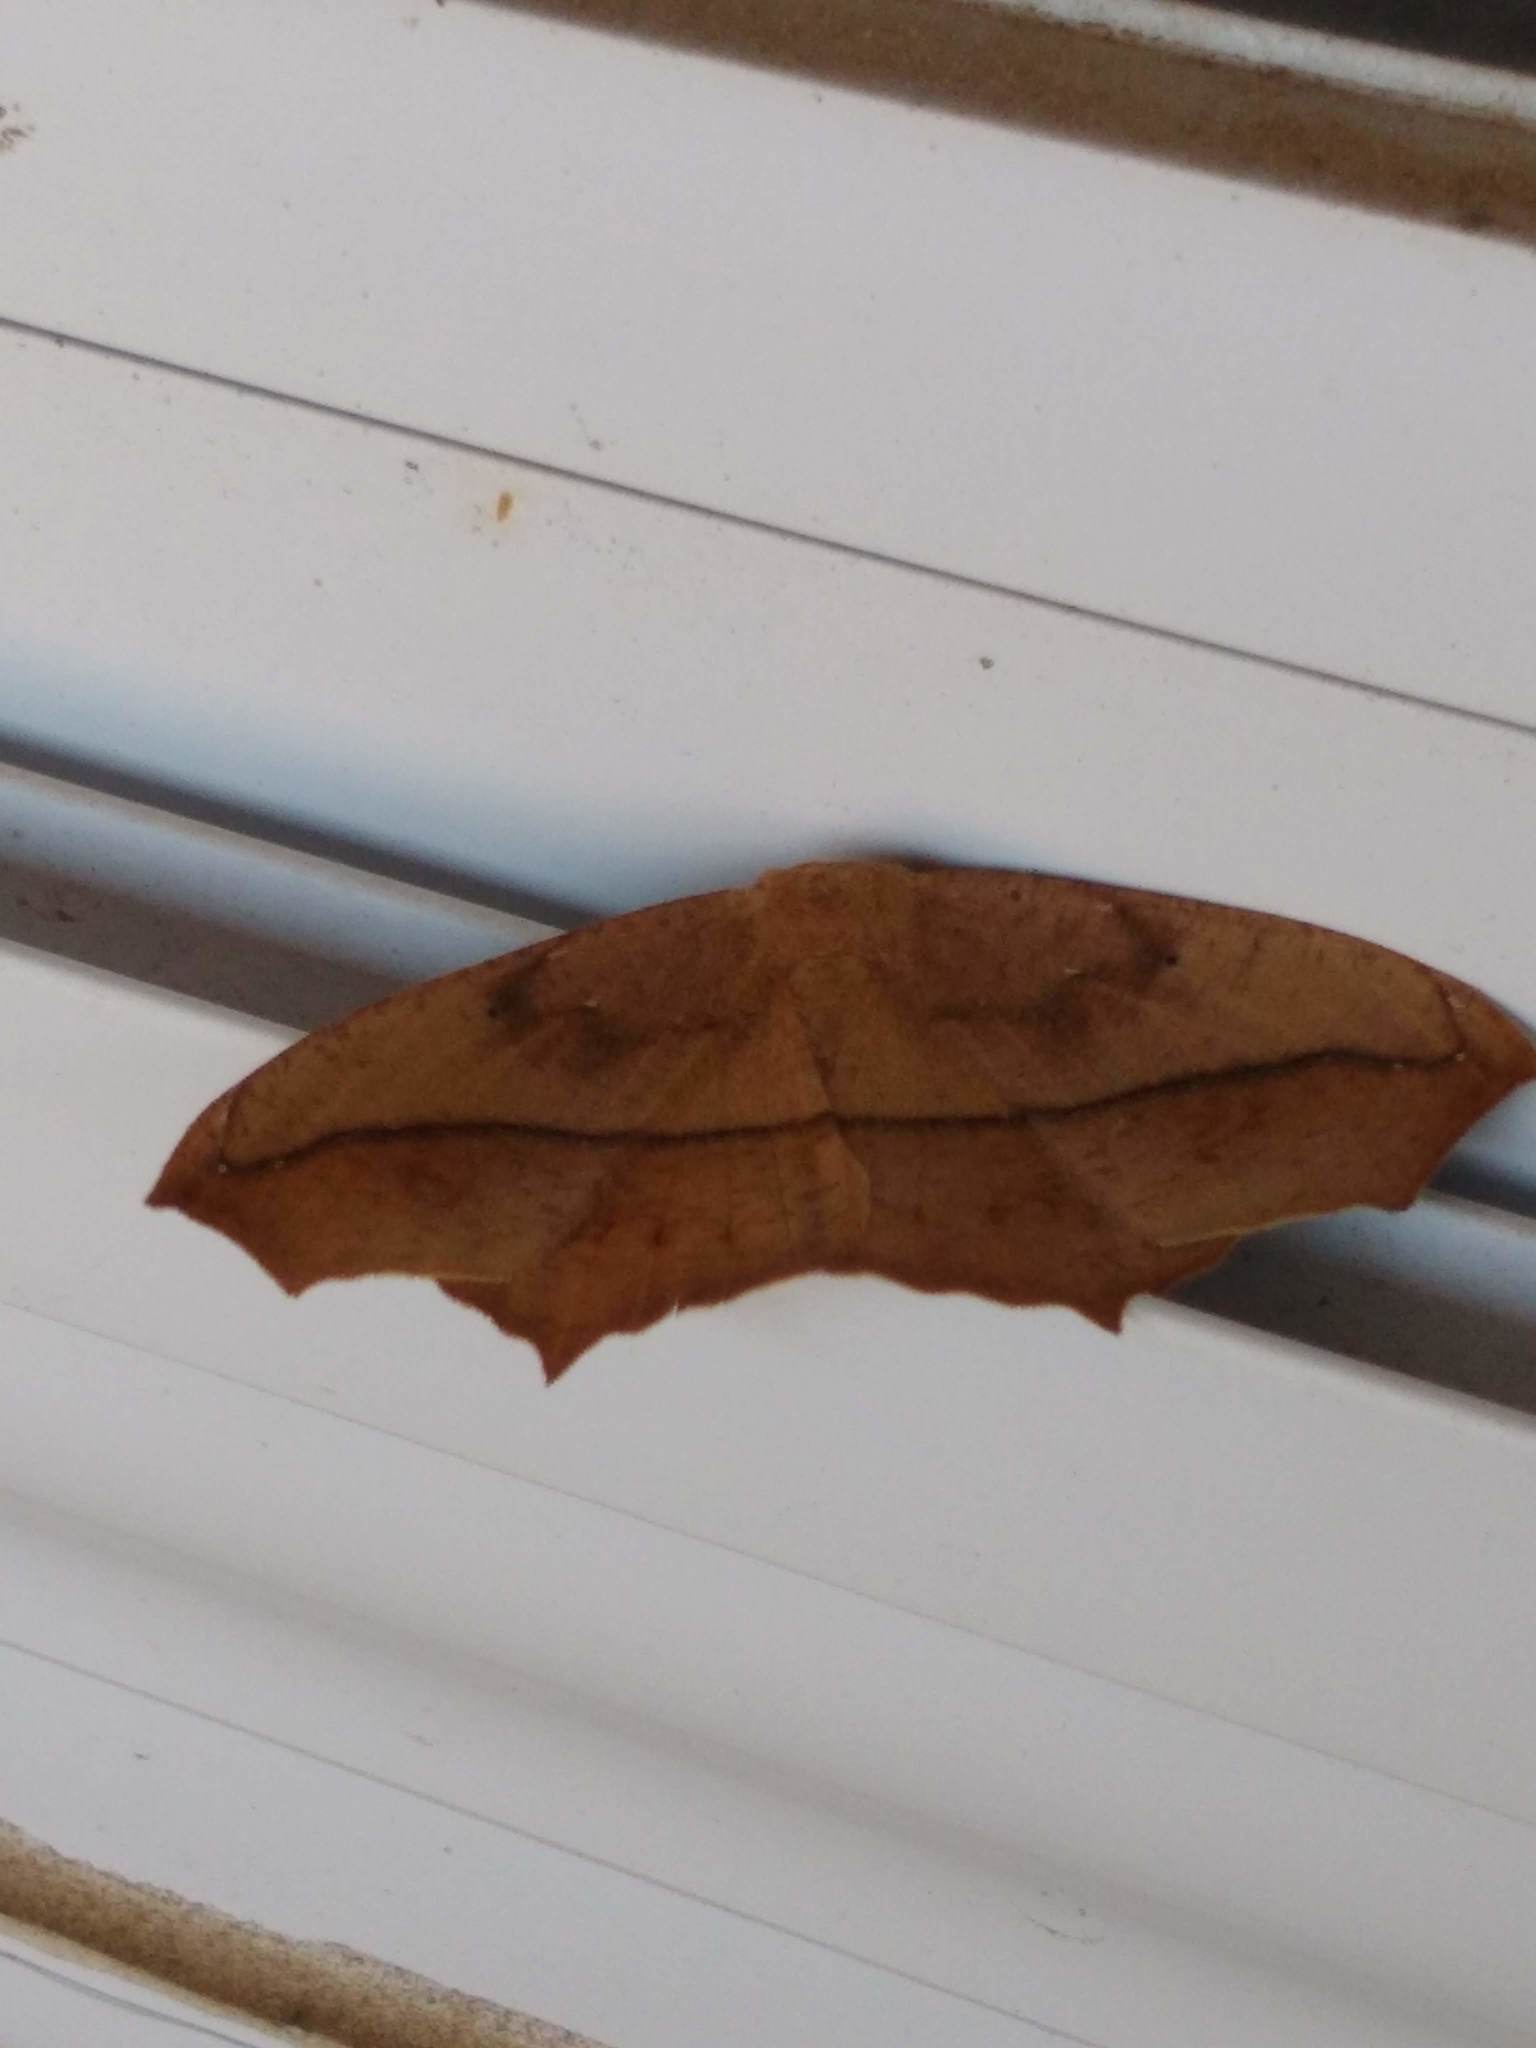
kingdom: Animalia
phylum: Arthropoda
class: Insecta
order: Lepidoptera
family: Geometridae
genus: Prochoerodes
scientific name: Prochoerodes lineola
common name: Large maple spanworm
